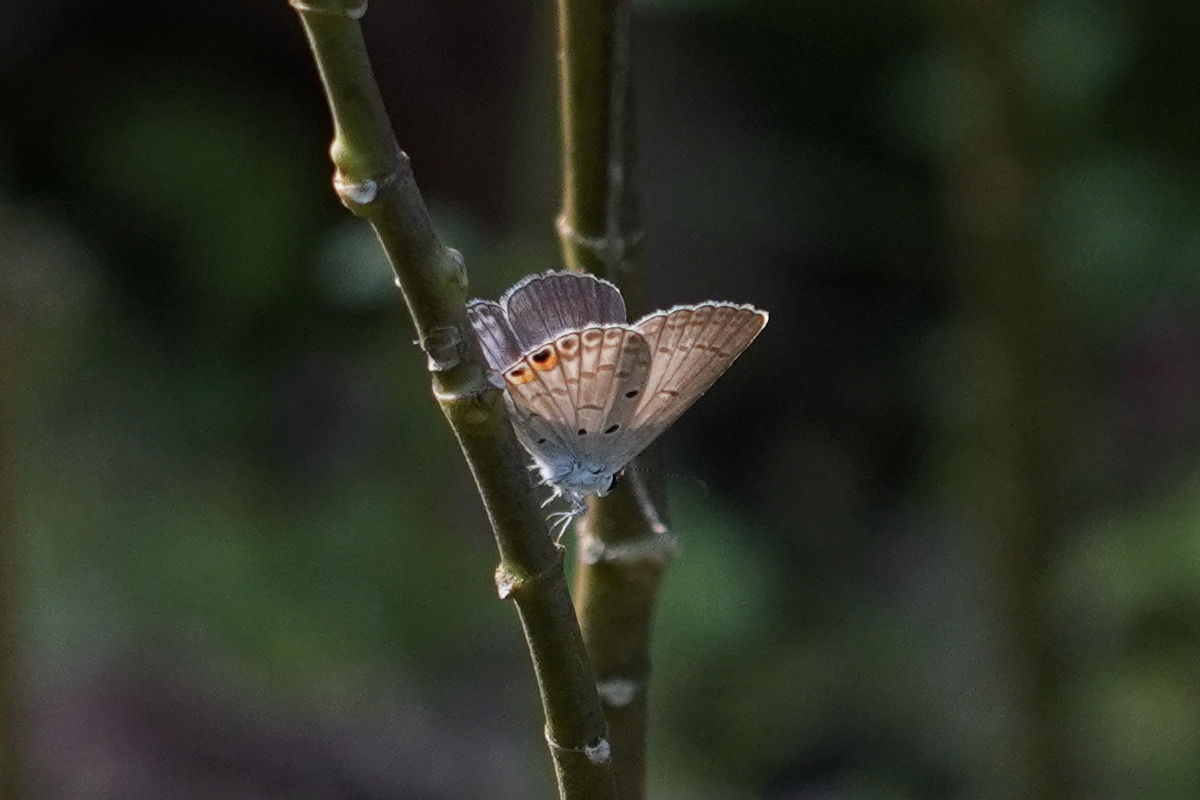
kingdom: Animalia
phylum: Arthropoda
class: Insecta
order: Lepidoptera
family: Lycaenidae
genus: Euchrysops
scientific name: Euchrysops cnejus
